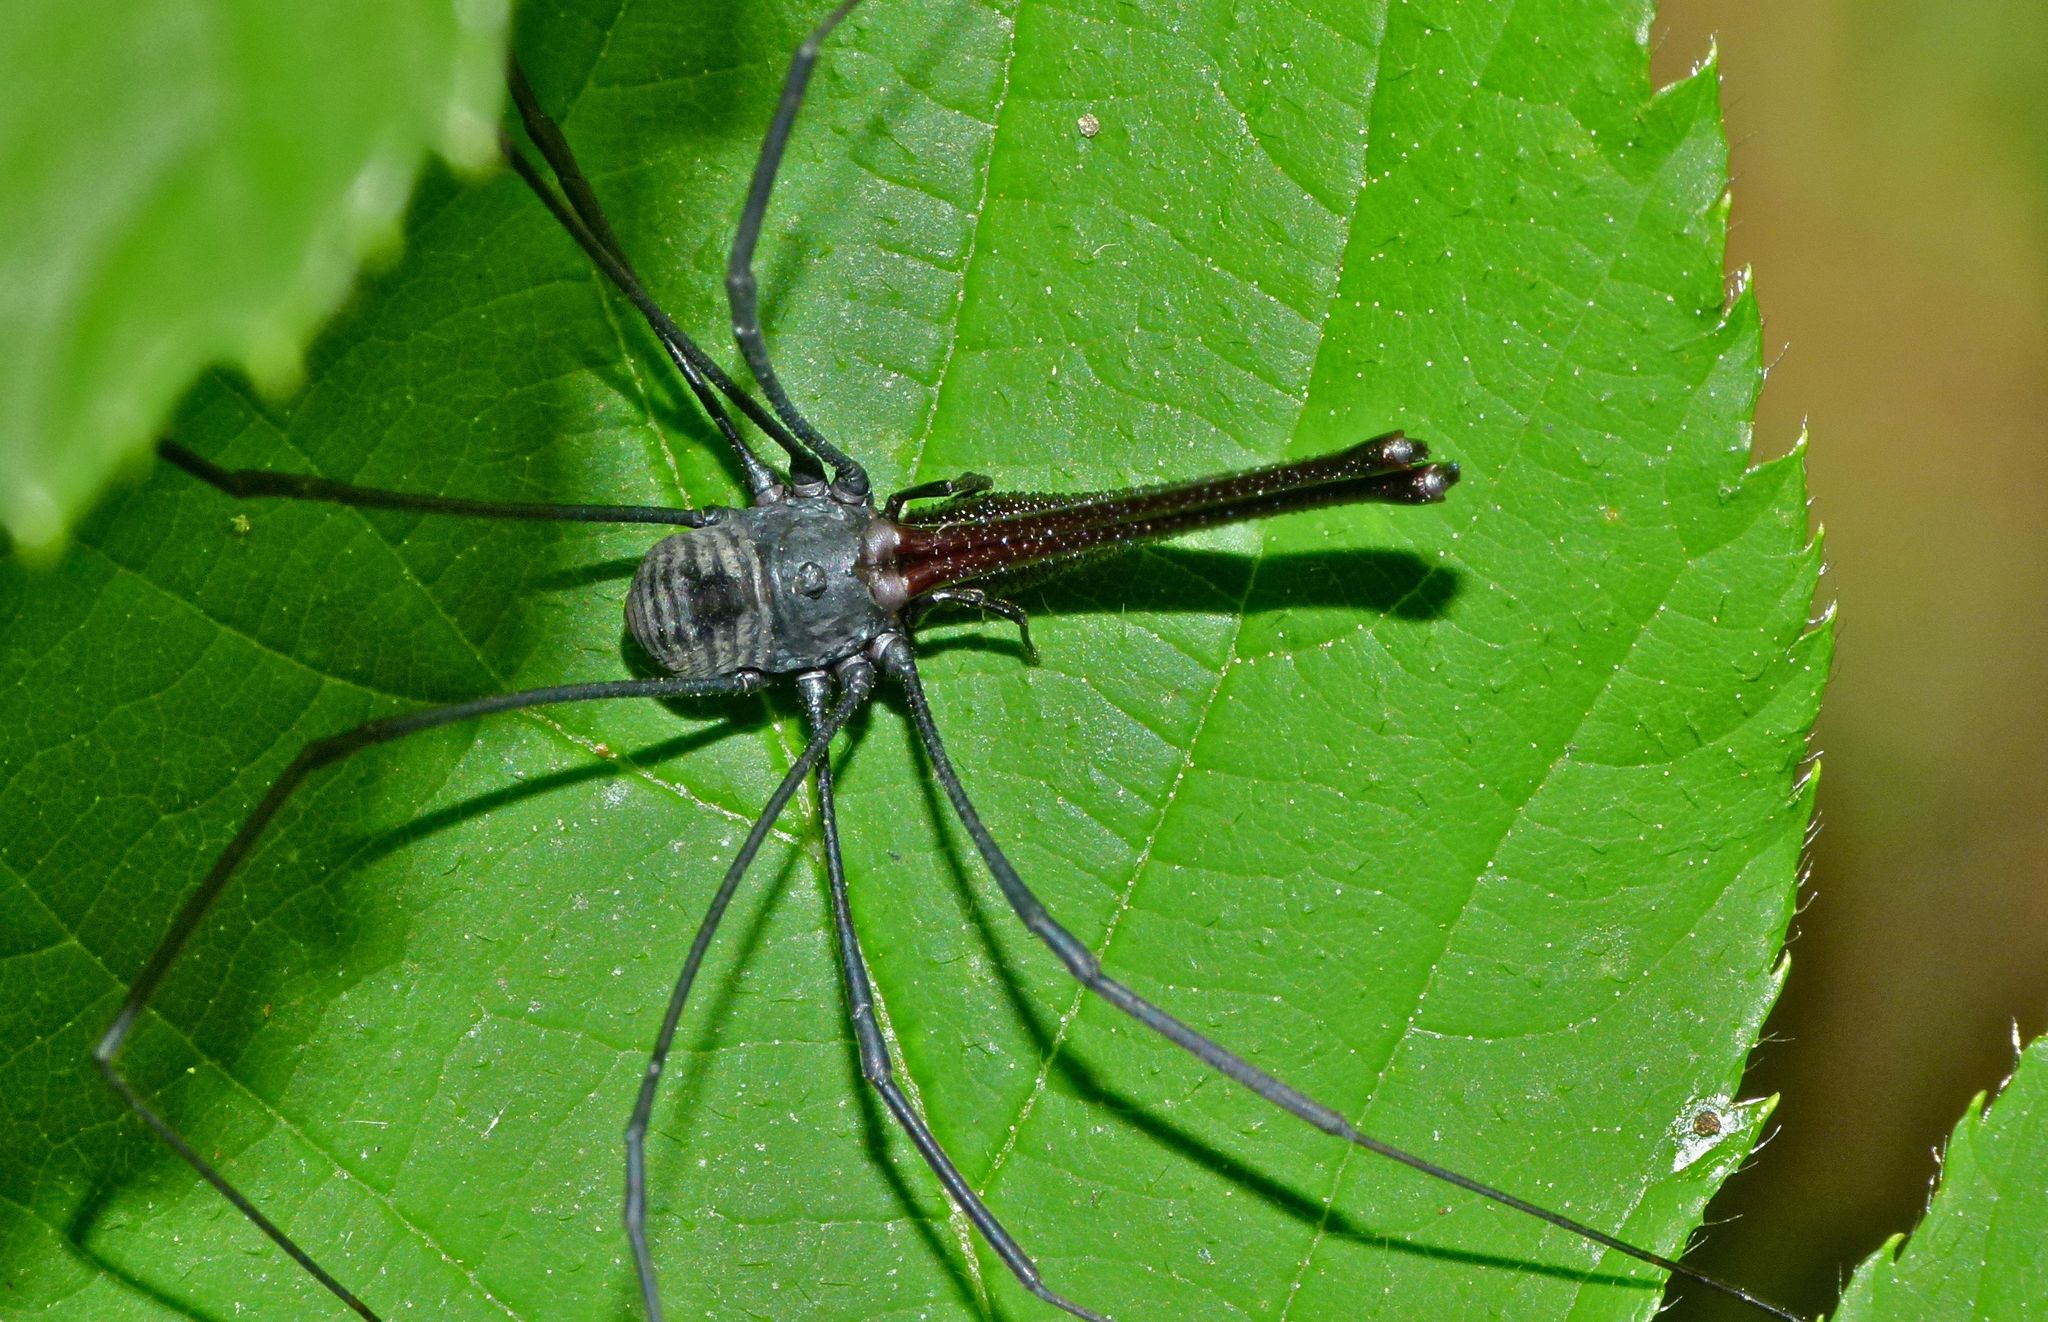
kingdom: Animalia
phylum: Arthropoda
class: Arachnida
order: Opiliones
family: Neopilionidae
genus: Pantopsalis
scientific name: Pantopsalis albipalpis
